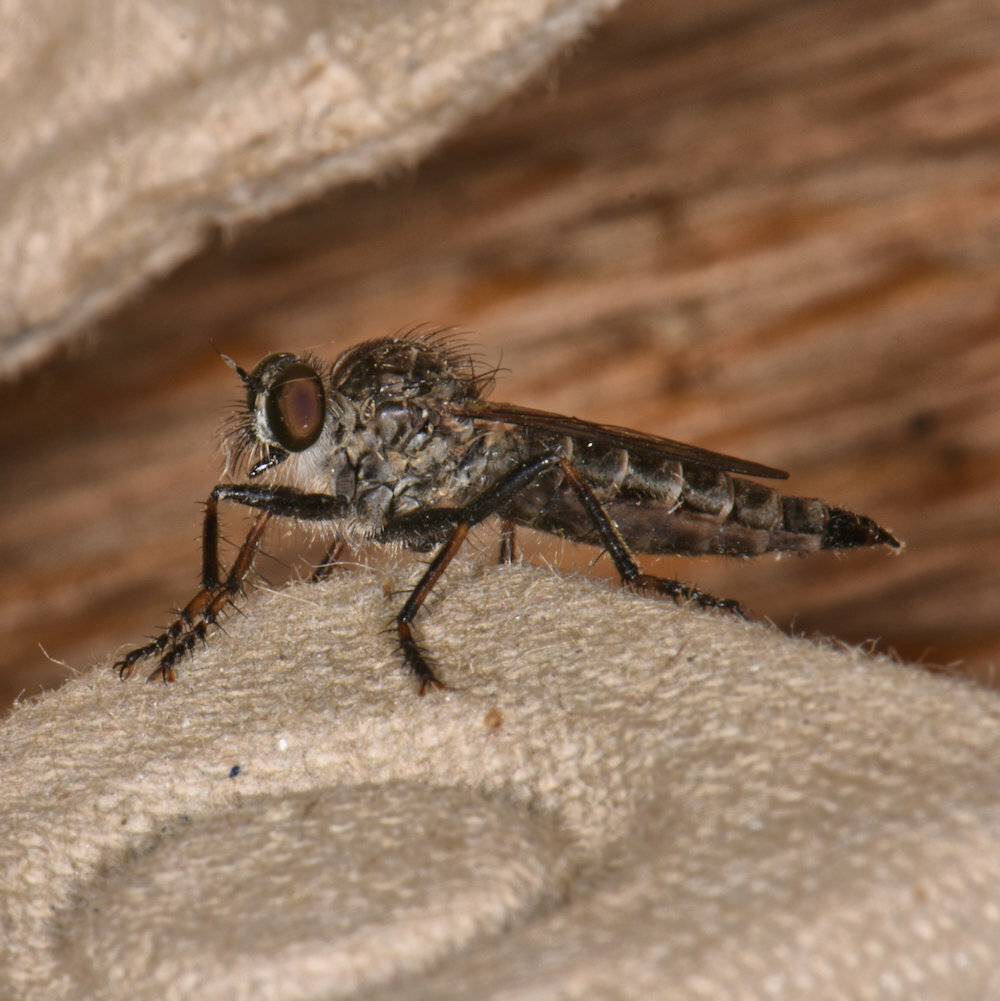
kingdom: Animalia
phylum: Arthropoda
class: Insecta
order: Diptera
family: Asilidae
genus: Machimus
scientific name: Machimus sadyates
